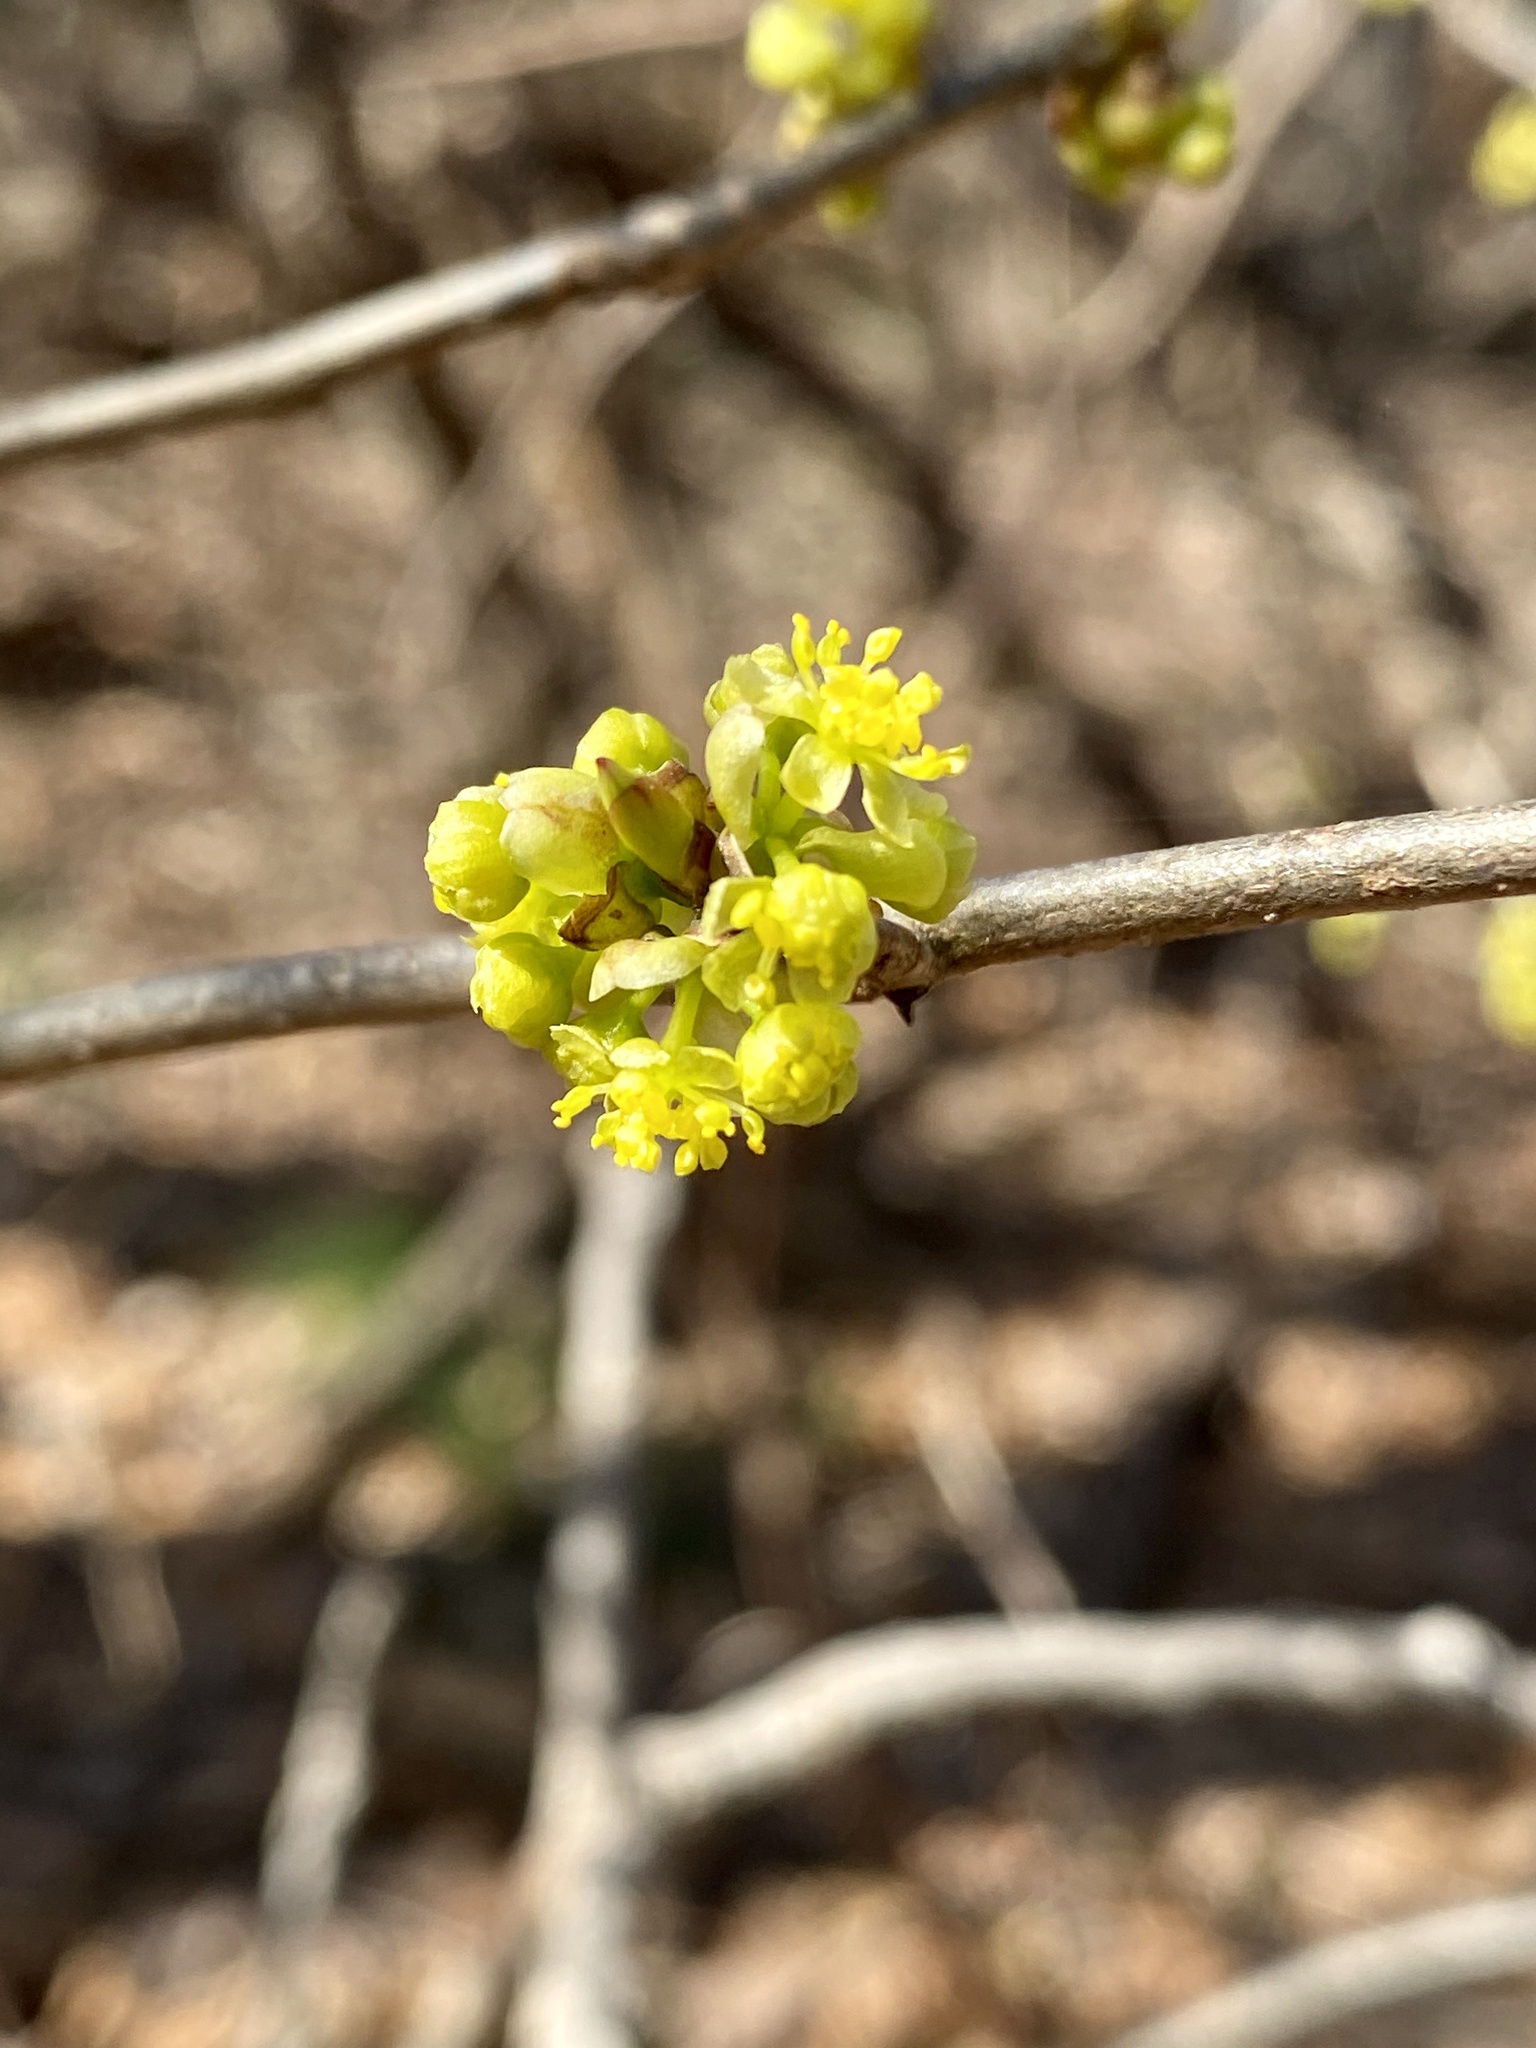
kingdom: Plantae
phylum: Tracheophyta
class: Magnoliopsida
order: Laurales
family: Lauraceae
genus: Lindera
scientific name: Lindera benzoin
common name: Spicebush
